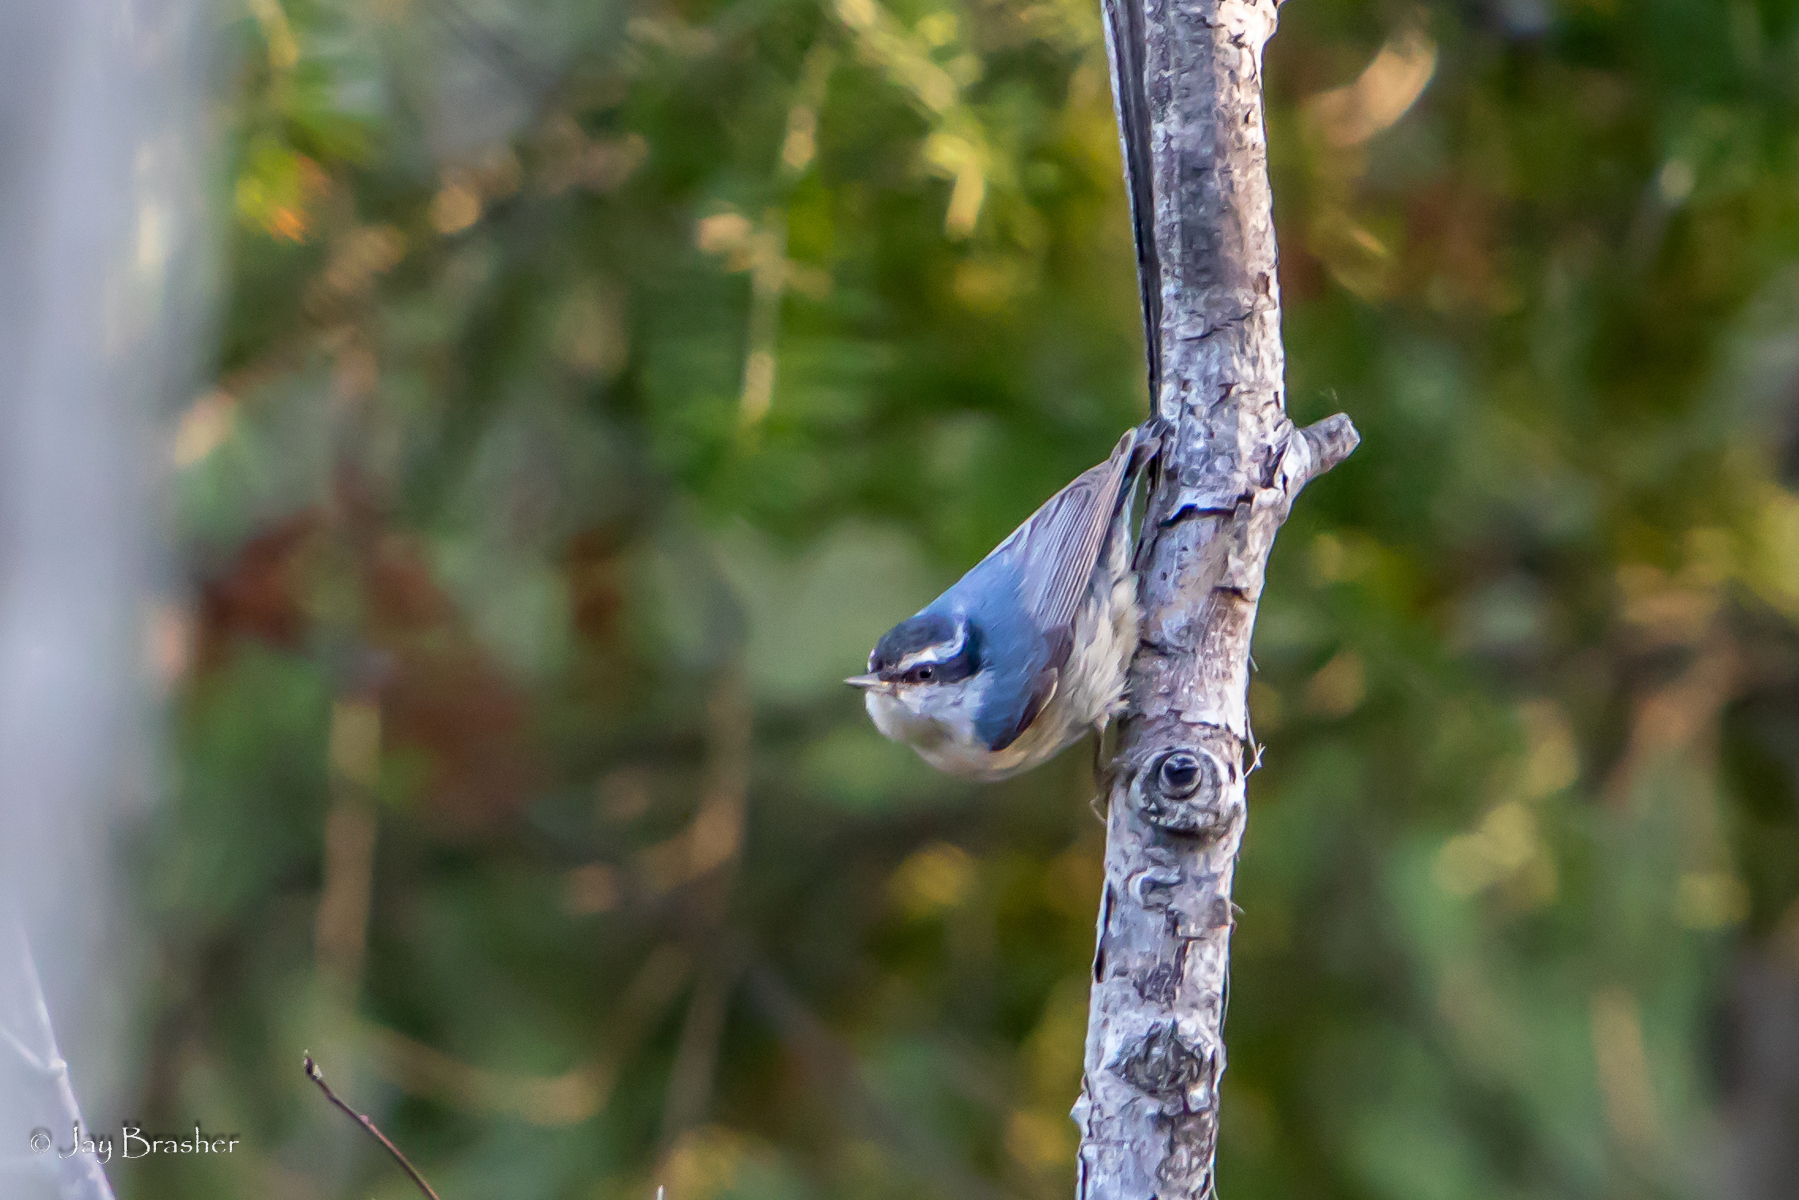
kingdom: Animalia
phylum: Chordata
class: Aves
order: Passeriformes
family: Sittidae
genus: Sitta
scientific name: Sitta canadensis
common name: Red-breasted nuthatch
